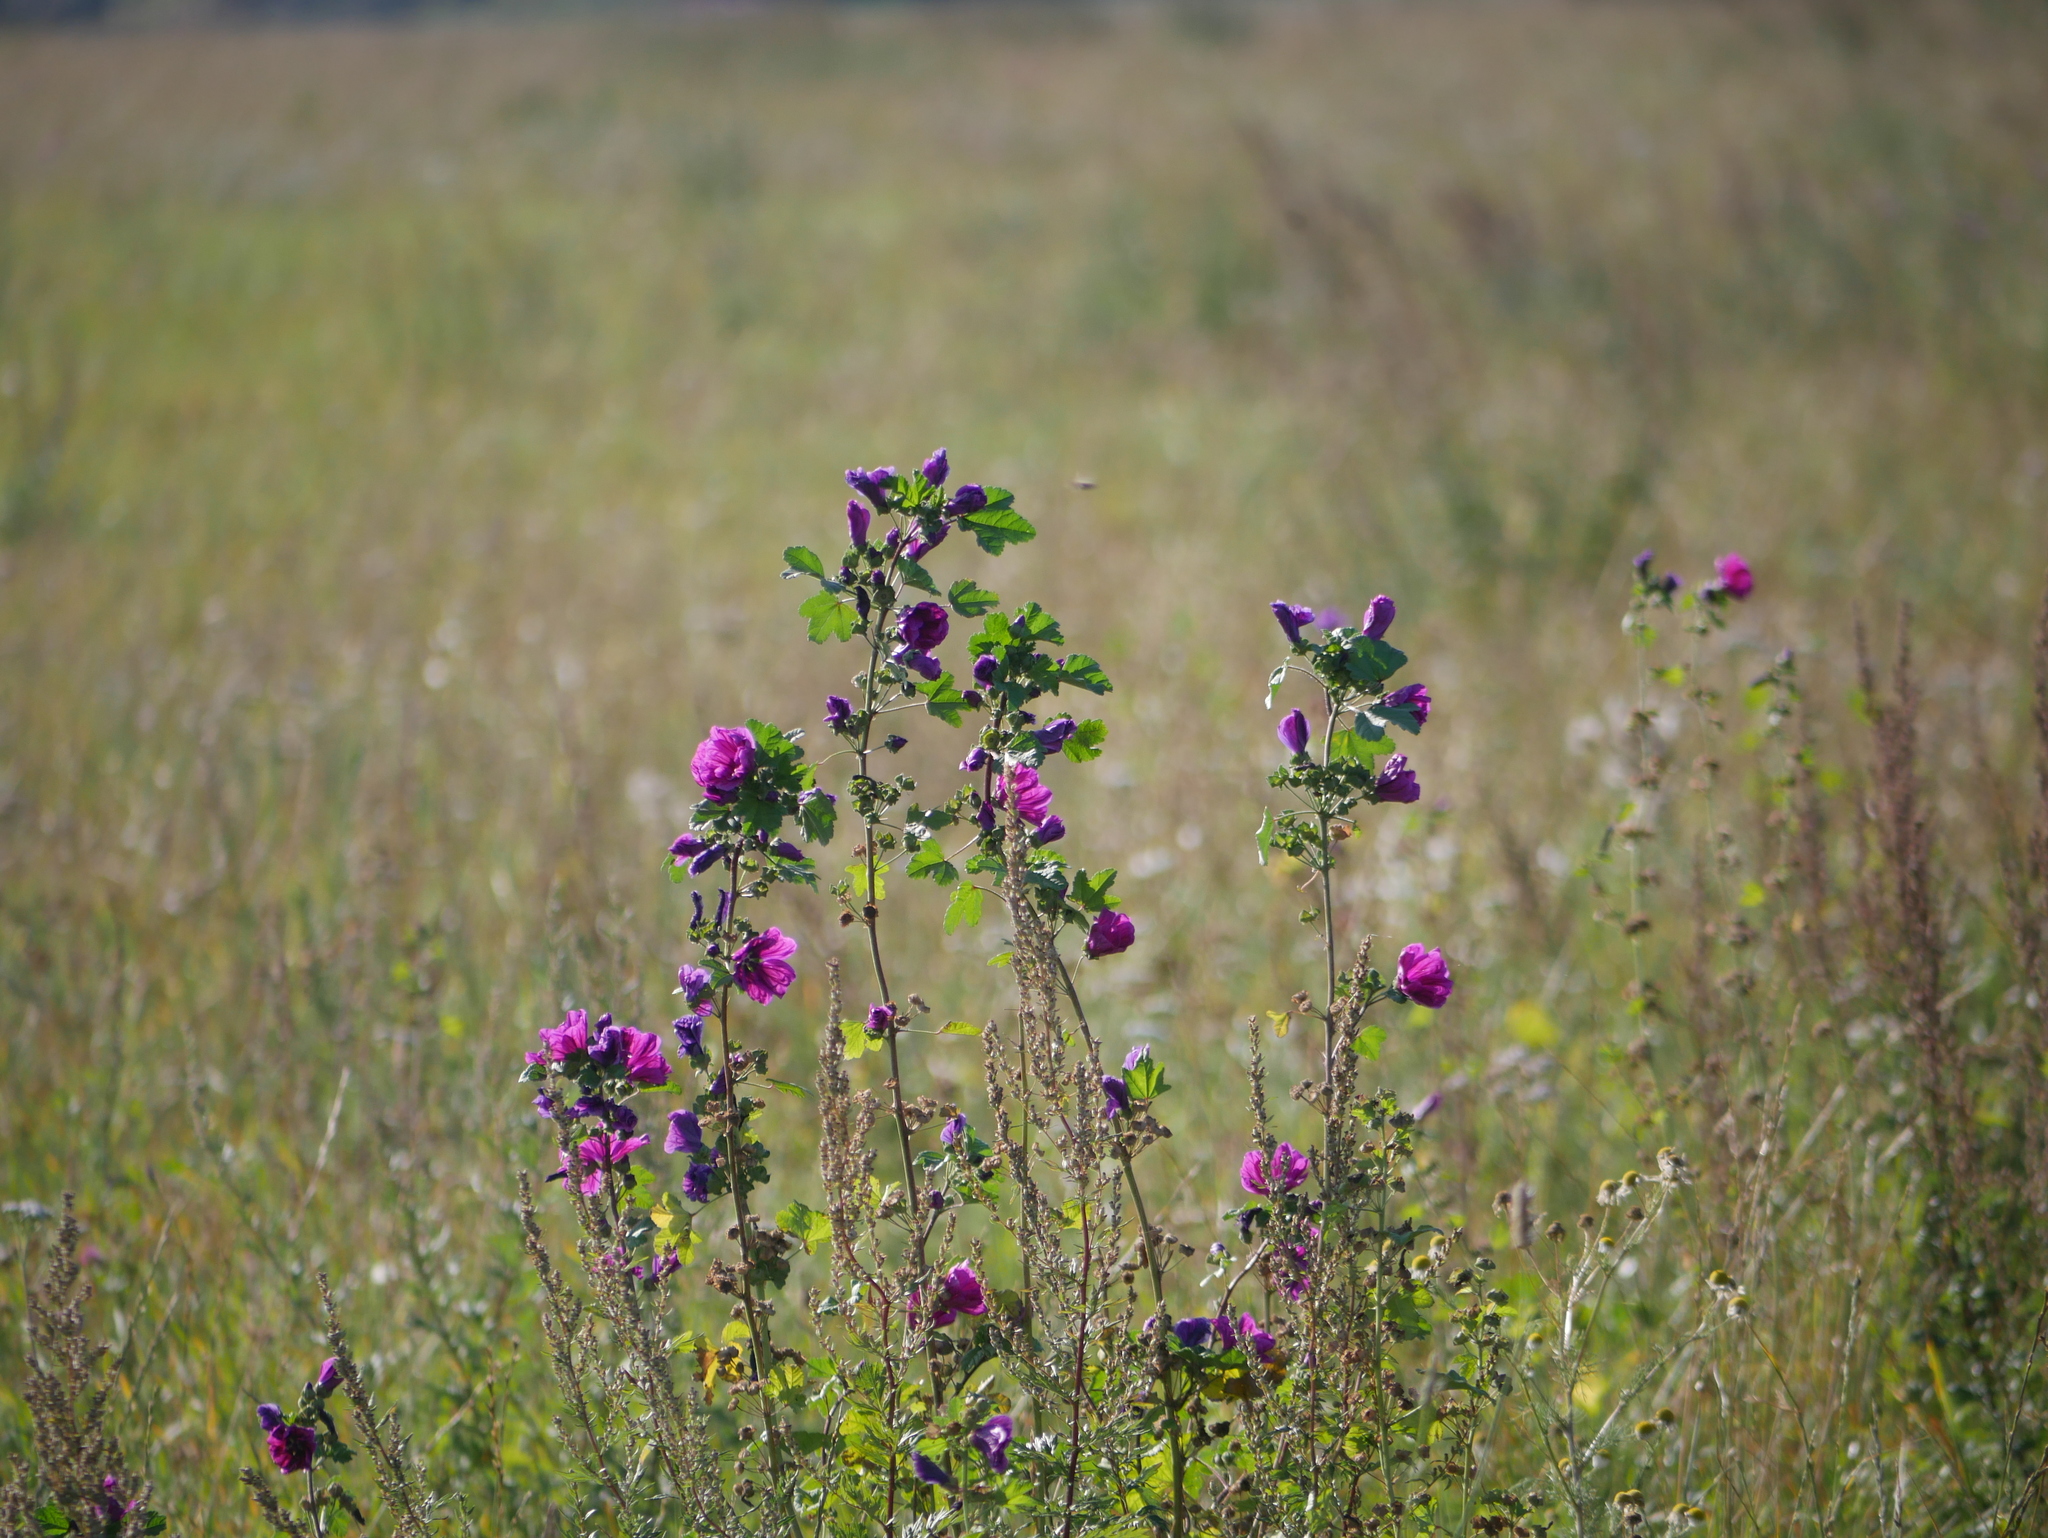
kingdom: Plantae
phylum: Tracheophyta
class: Magnoliopsida
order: Malvales
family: Malvaceae
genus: Malva
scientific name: Malva sylvestris
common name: Common mallow
